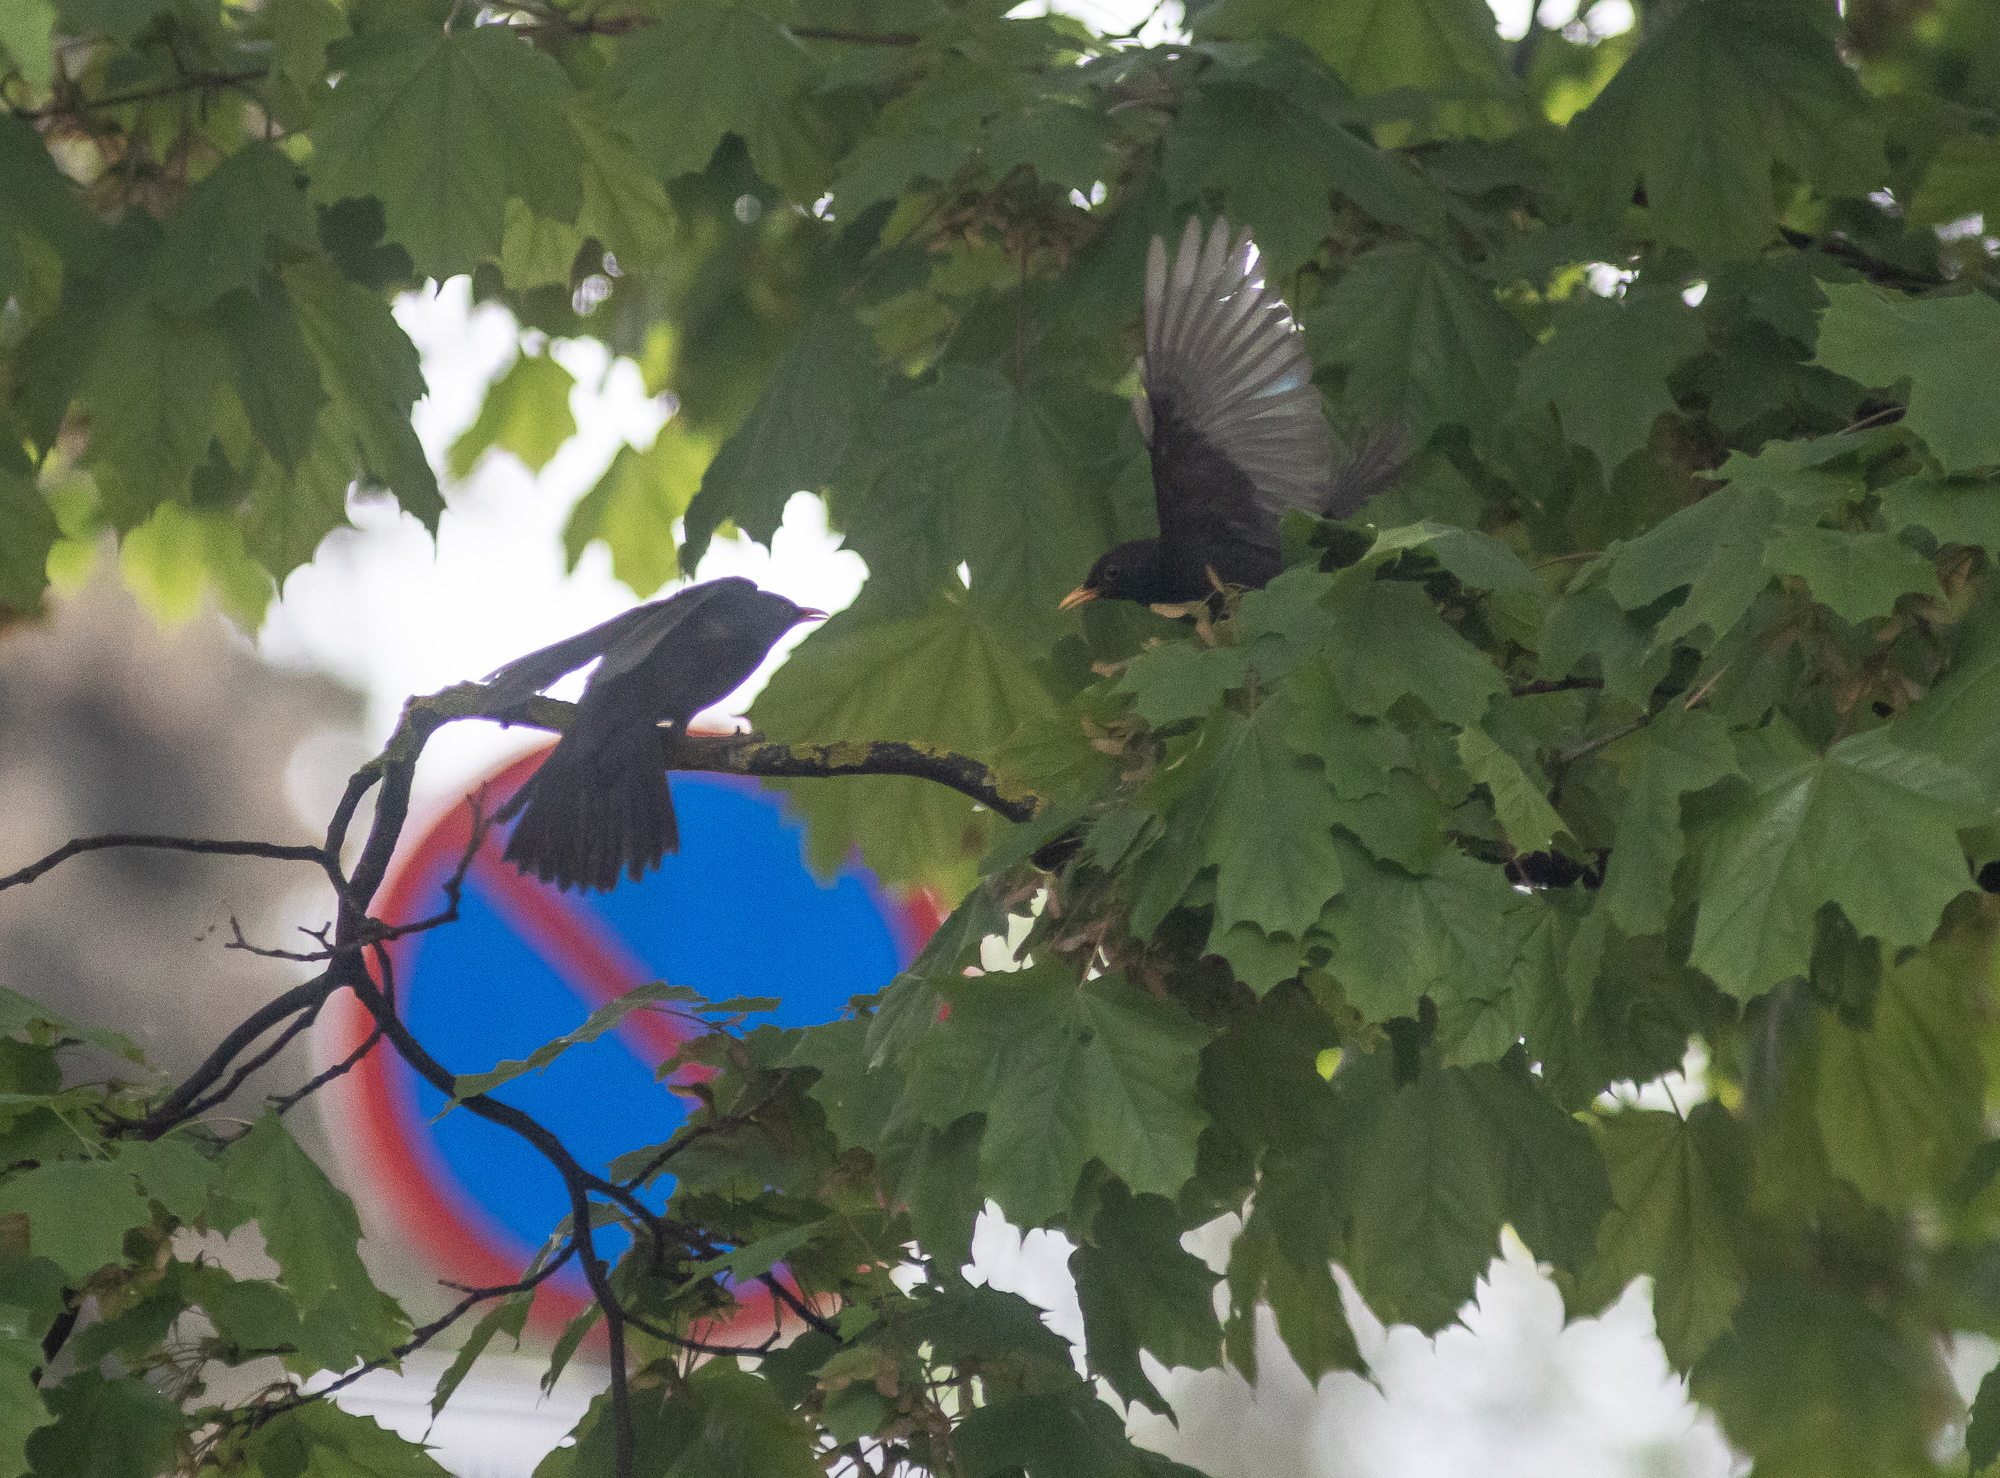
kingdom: Animalia
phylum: Chordata
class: Aves
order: Passeriformes
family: Turdidae
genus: Turdus
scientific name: Turdus merula
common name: Common blackbird
